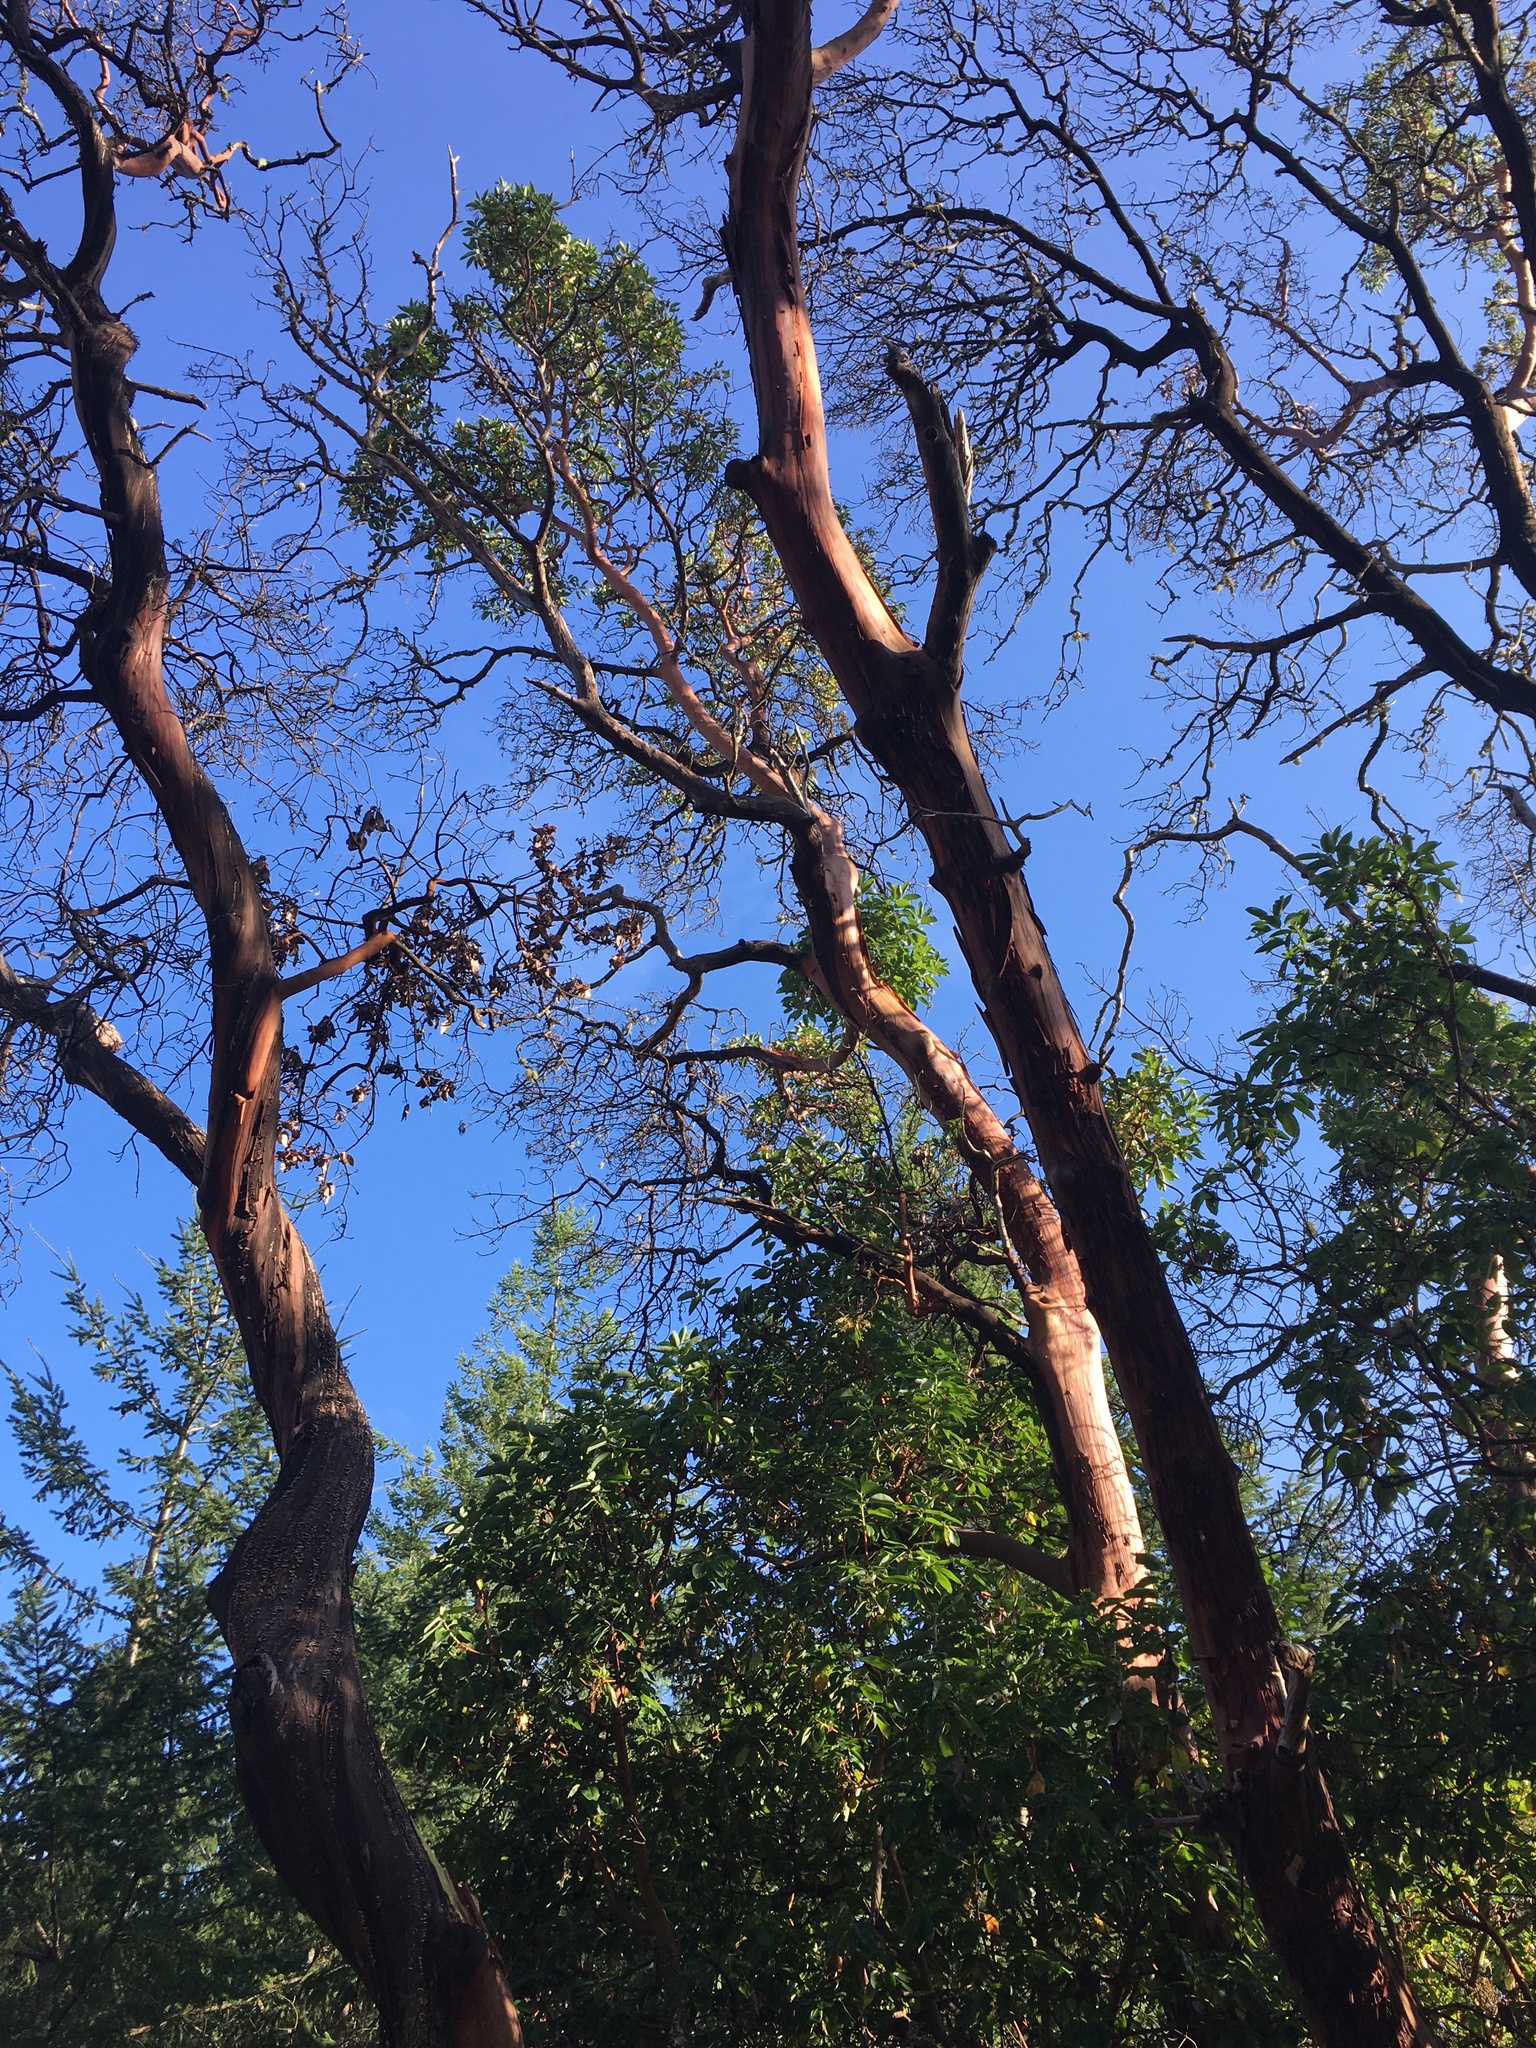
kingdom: Plantae
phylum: Tracheophyta
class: Magnoliopsida
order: Ericales
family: Ericaceae
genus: Arbutus
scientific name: Arbutus menziesii
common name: Pacific madrone
